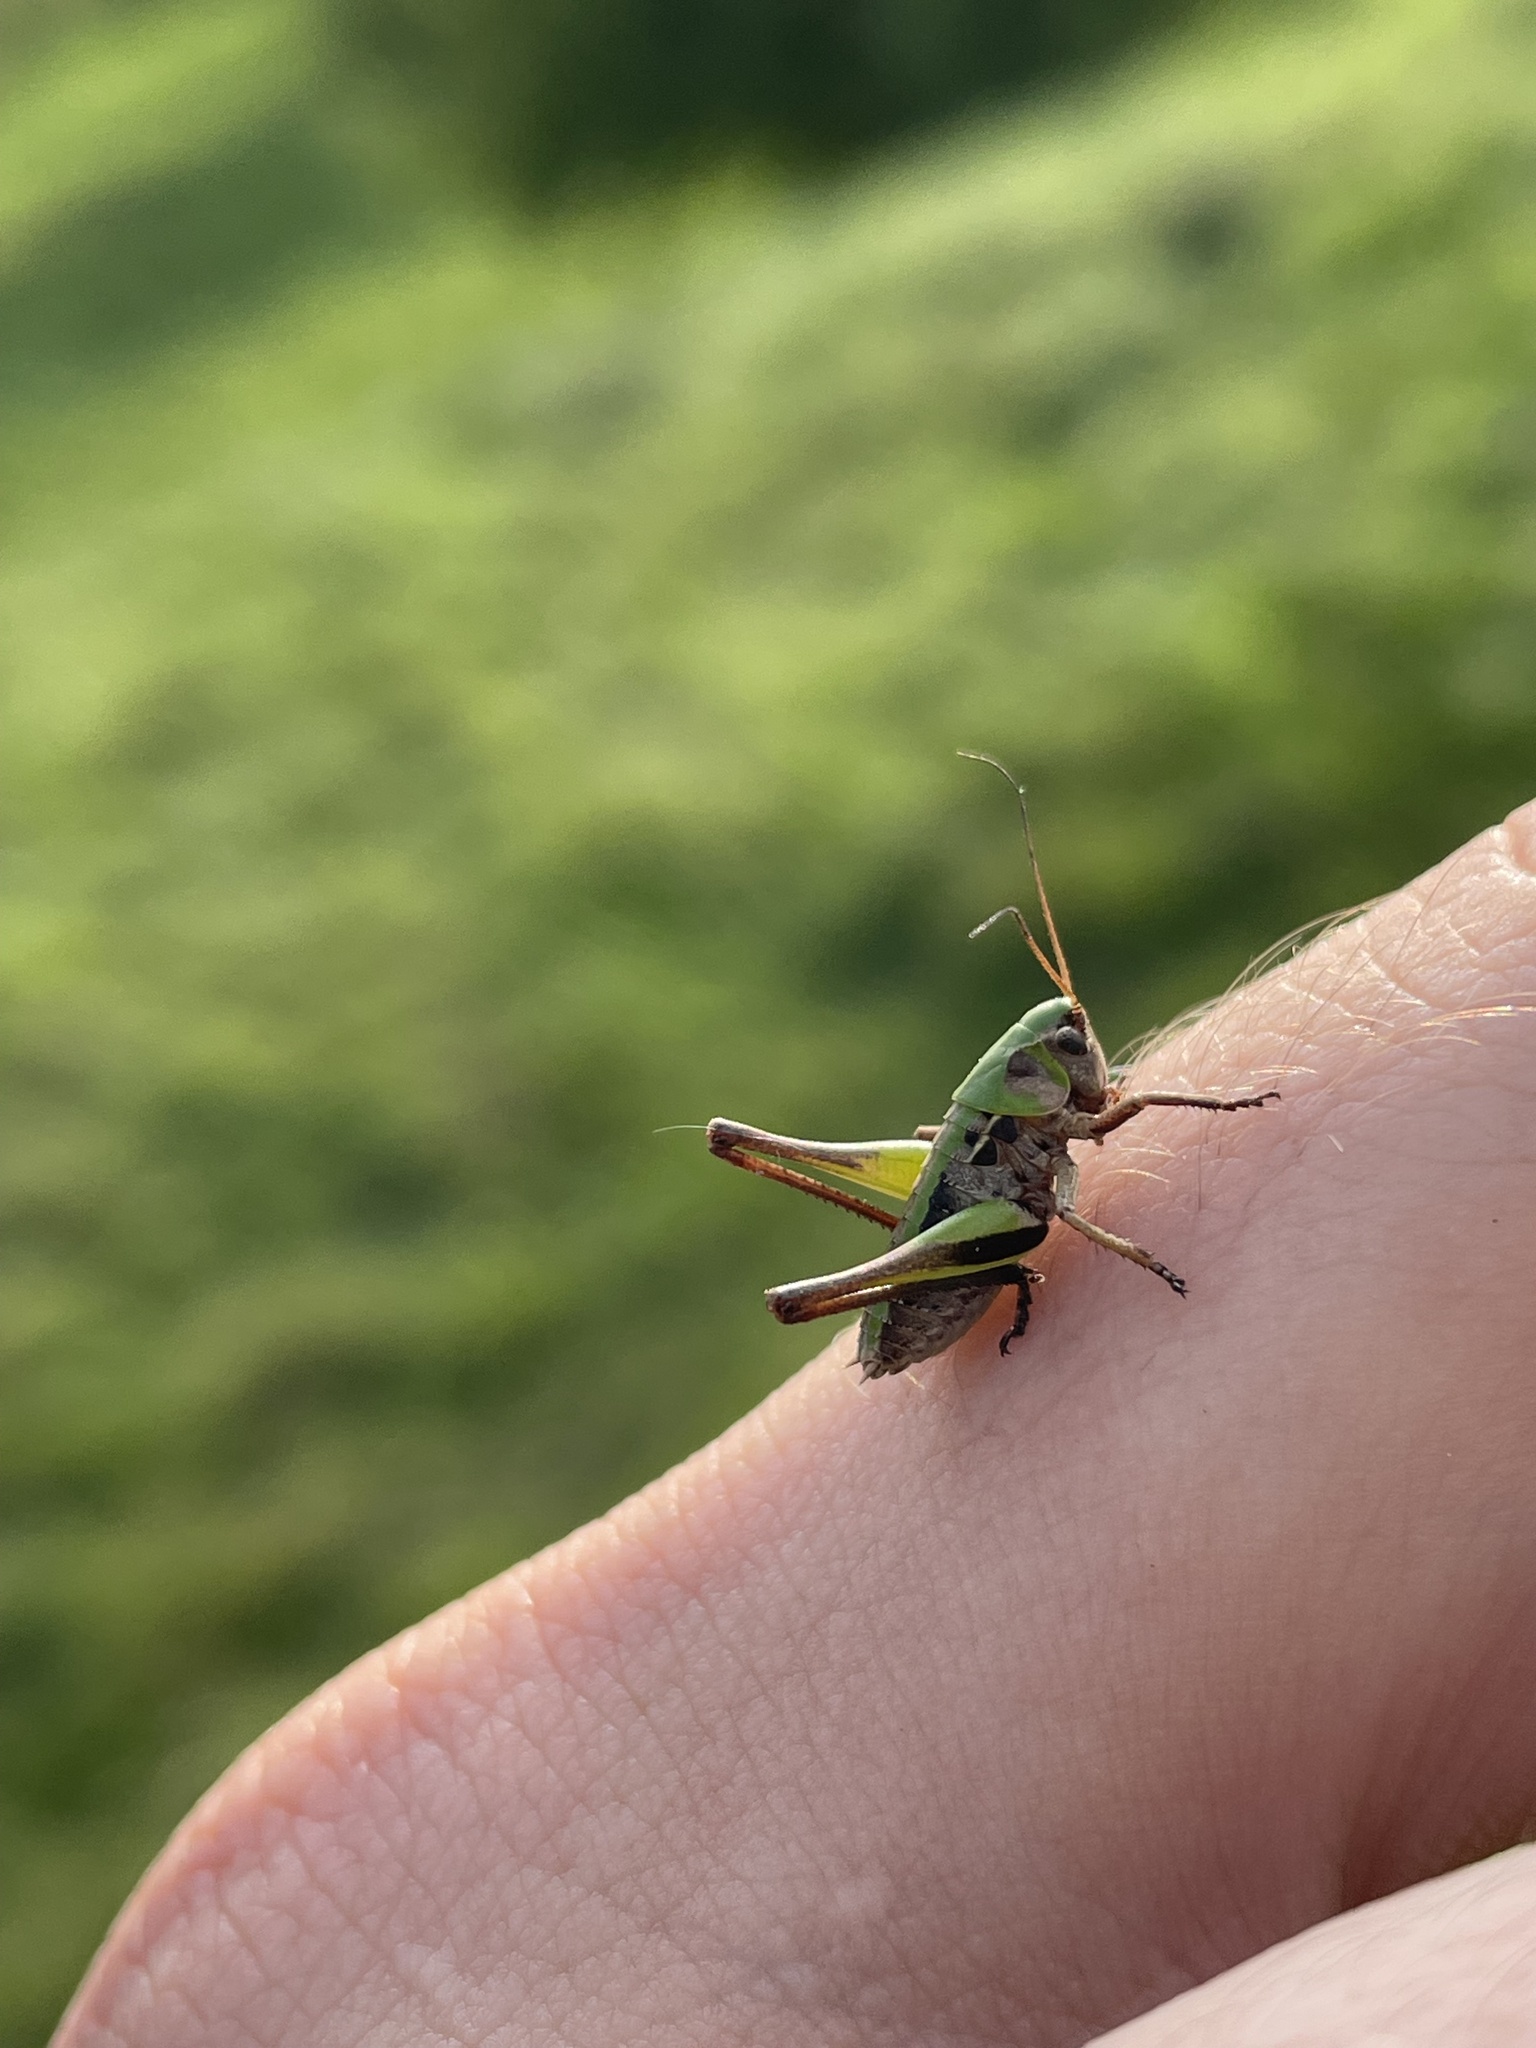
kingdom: Animalia
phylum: Arthropoda
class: Insecta
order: Orthoptera
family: Tettigoniidae
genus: Decticus
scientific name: Decticus verrucivorus
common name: Wart-biter
